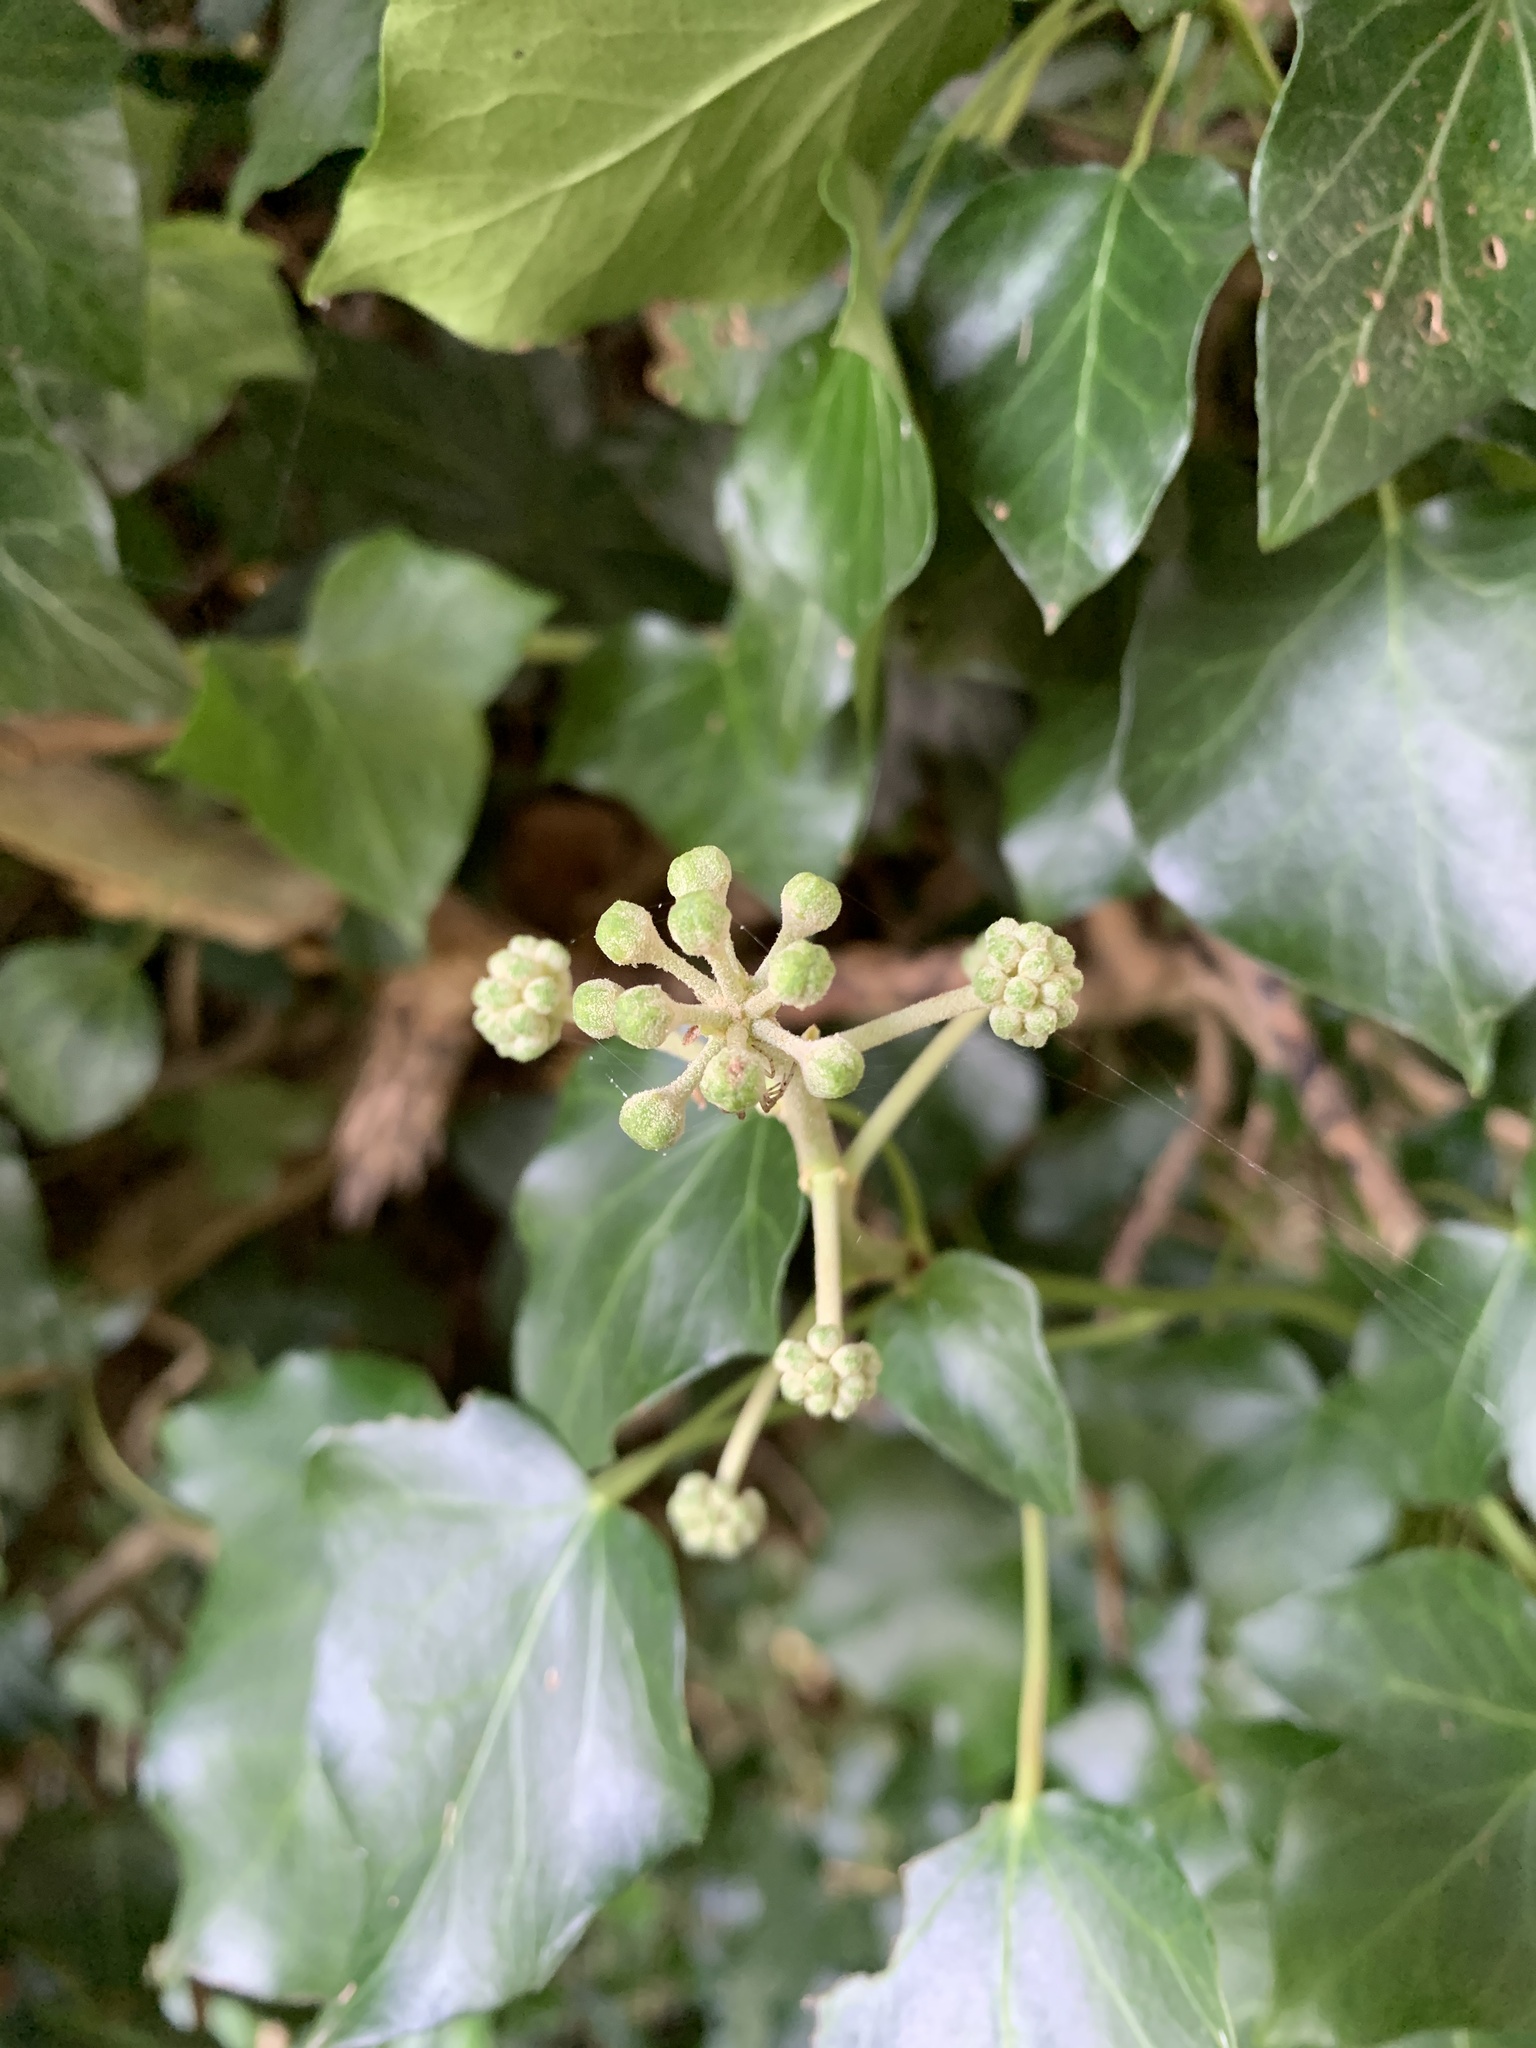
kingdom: Plantae
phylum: Tracheophyta
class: Magnoliopsida
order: Apiales
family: Araliaceae
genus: Hedera
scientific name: Hedera helix
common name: Ivy
